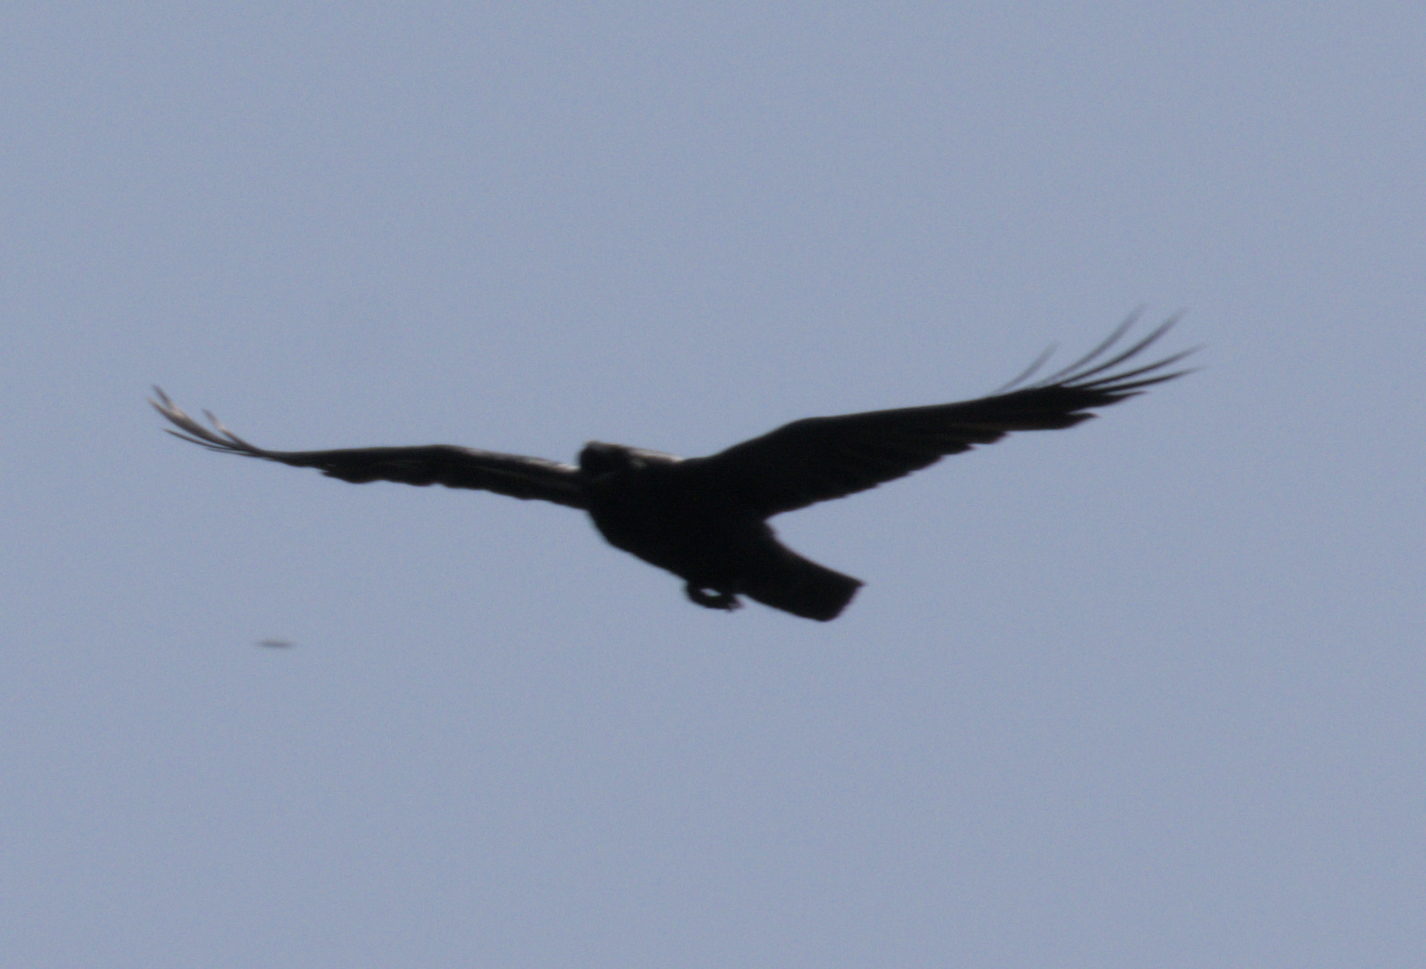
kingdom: Animalia
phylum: Chordata
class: Aves
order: Passeriformes
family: Corvidae
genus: Corvus
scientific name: Corvus corax
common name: Common raven
